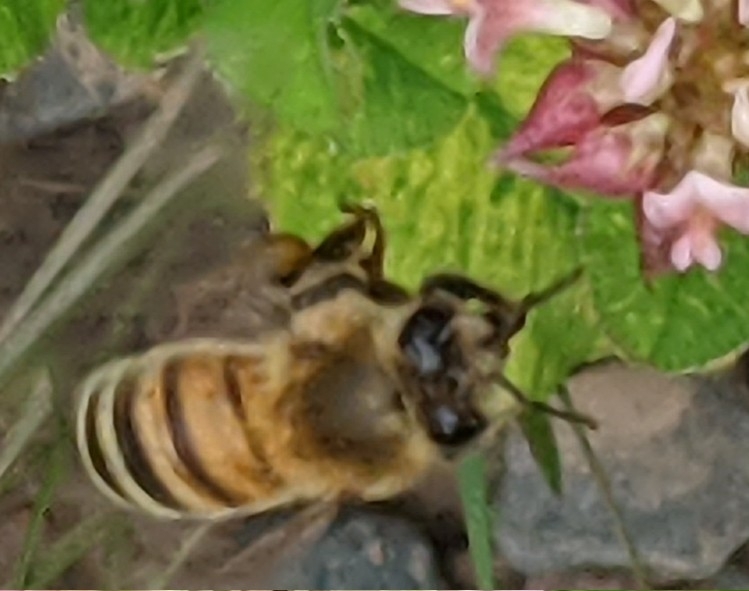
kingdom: Animalia
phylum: Arthropoda
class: Insecta
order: Hymenoptera
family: Apidae
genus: Apis
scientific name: Apis mellifera
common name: Honey bee
